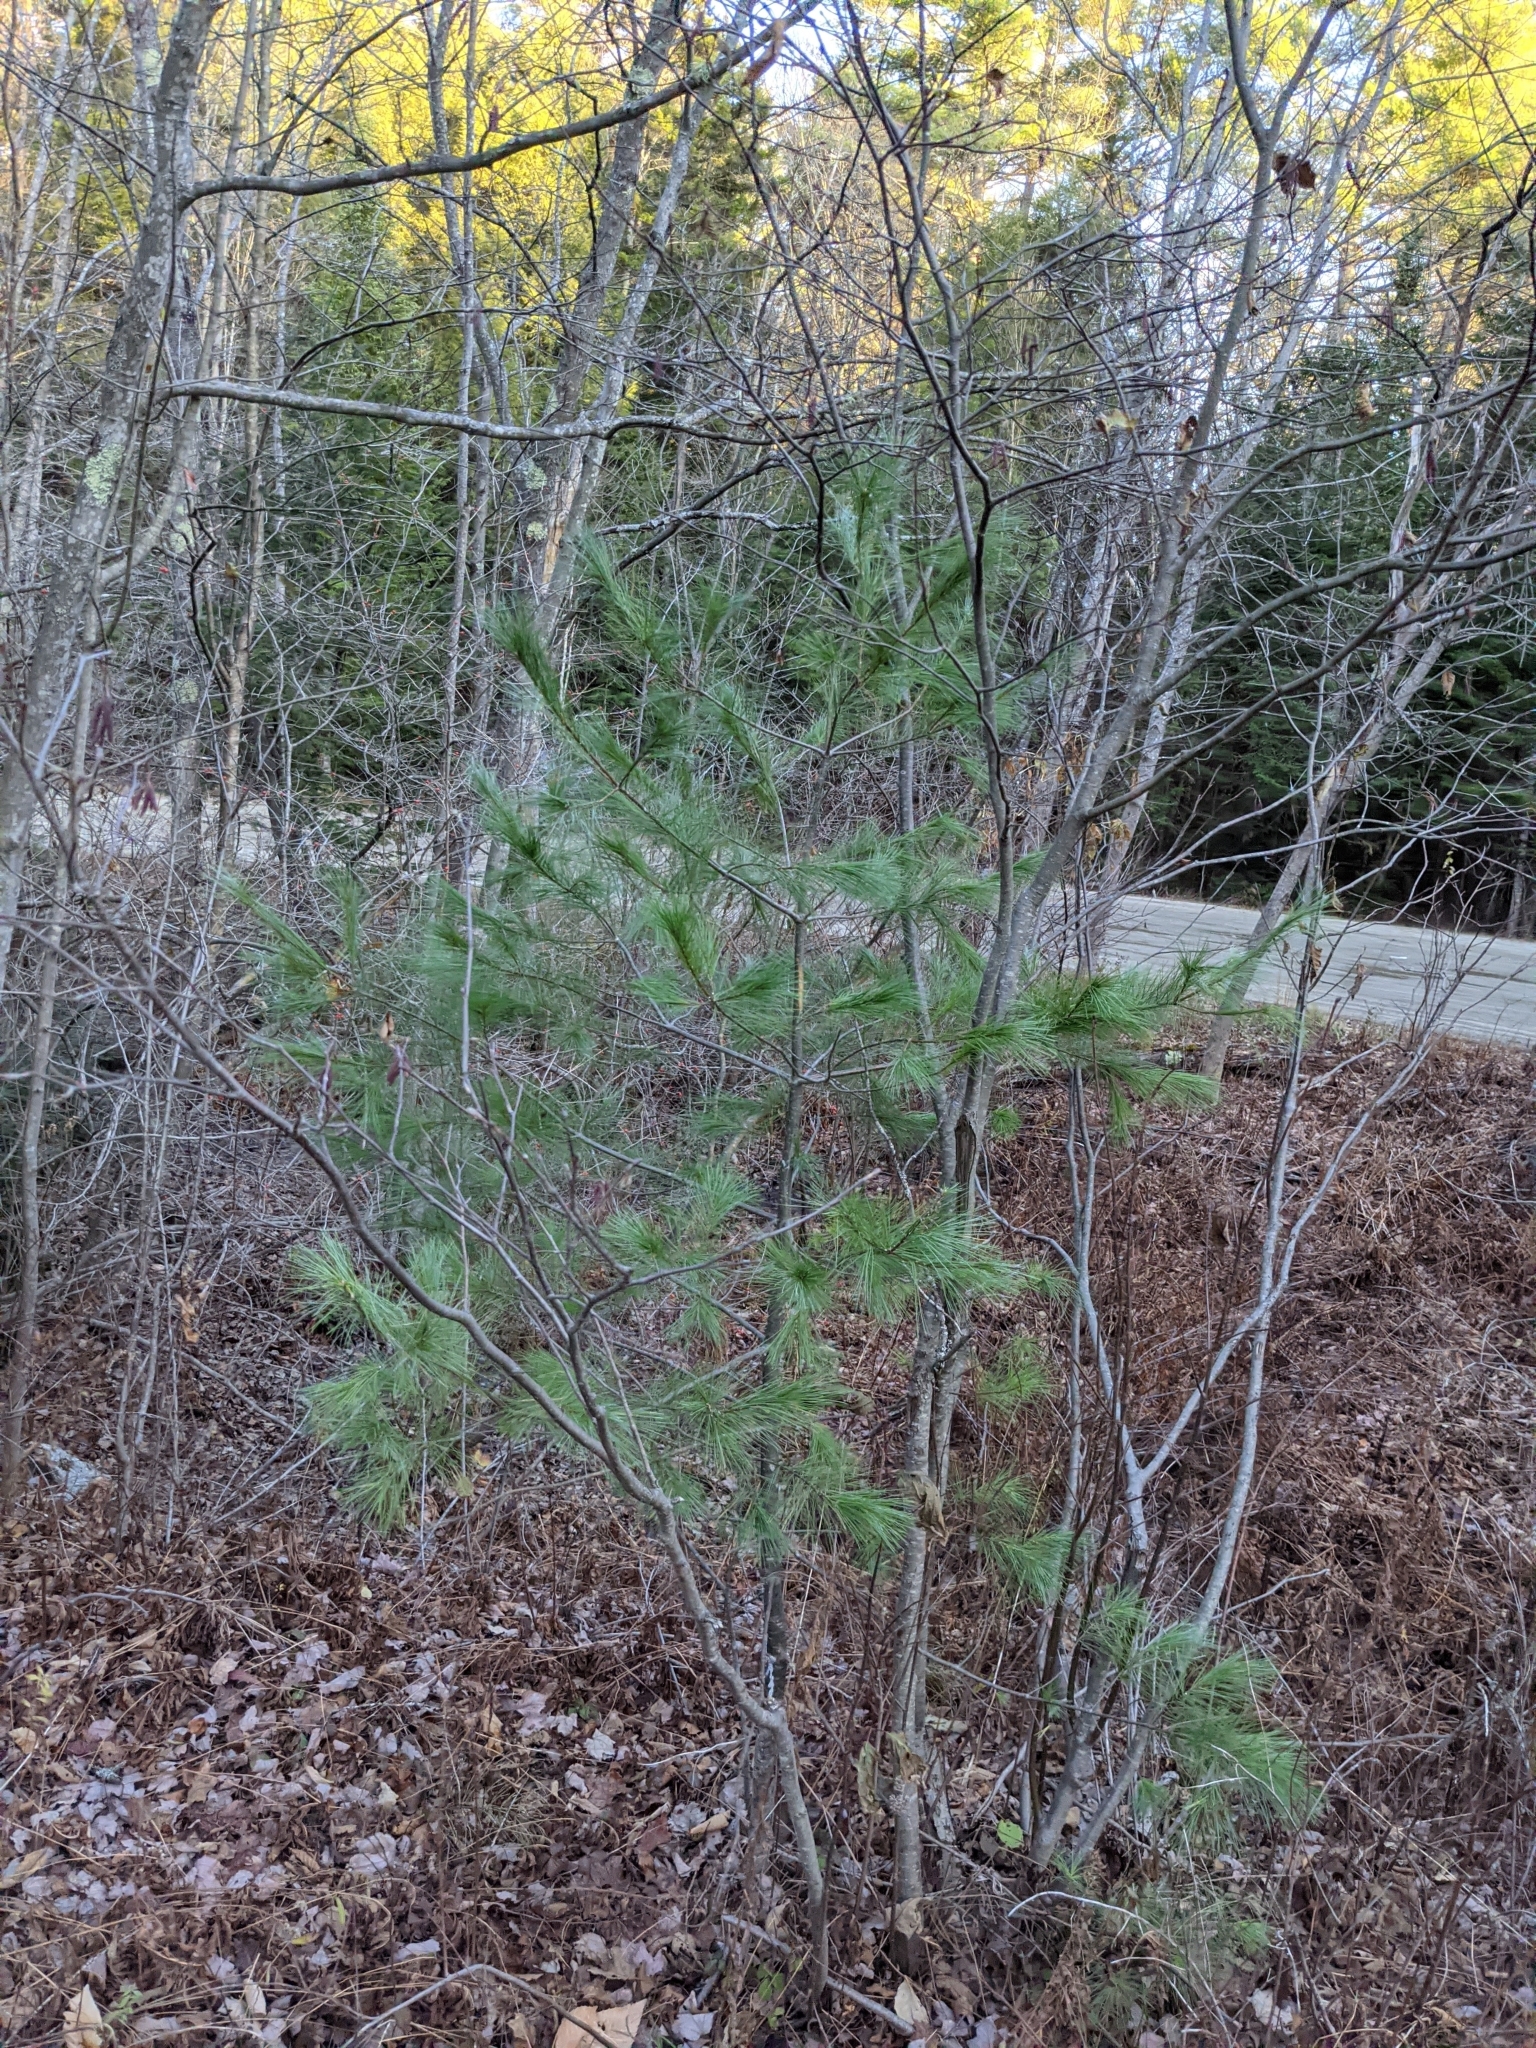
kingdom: Plantae
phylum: Tracheophyta
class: Pinopsida
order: Pinales
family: Pinaceae
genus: Pinus
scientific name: Pinus strobus
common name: Weymouth pine
